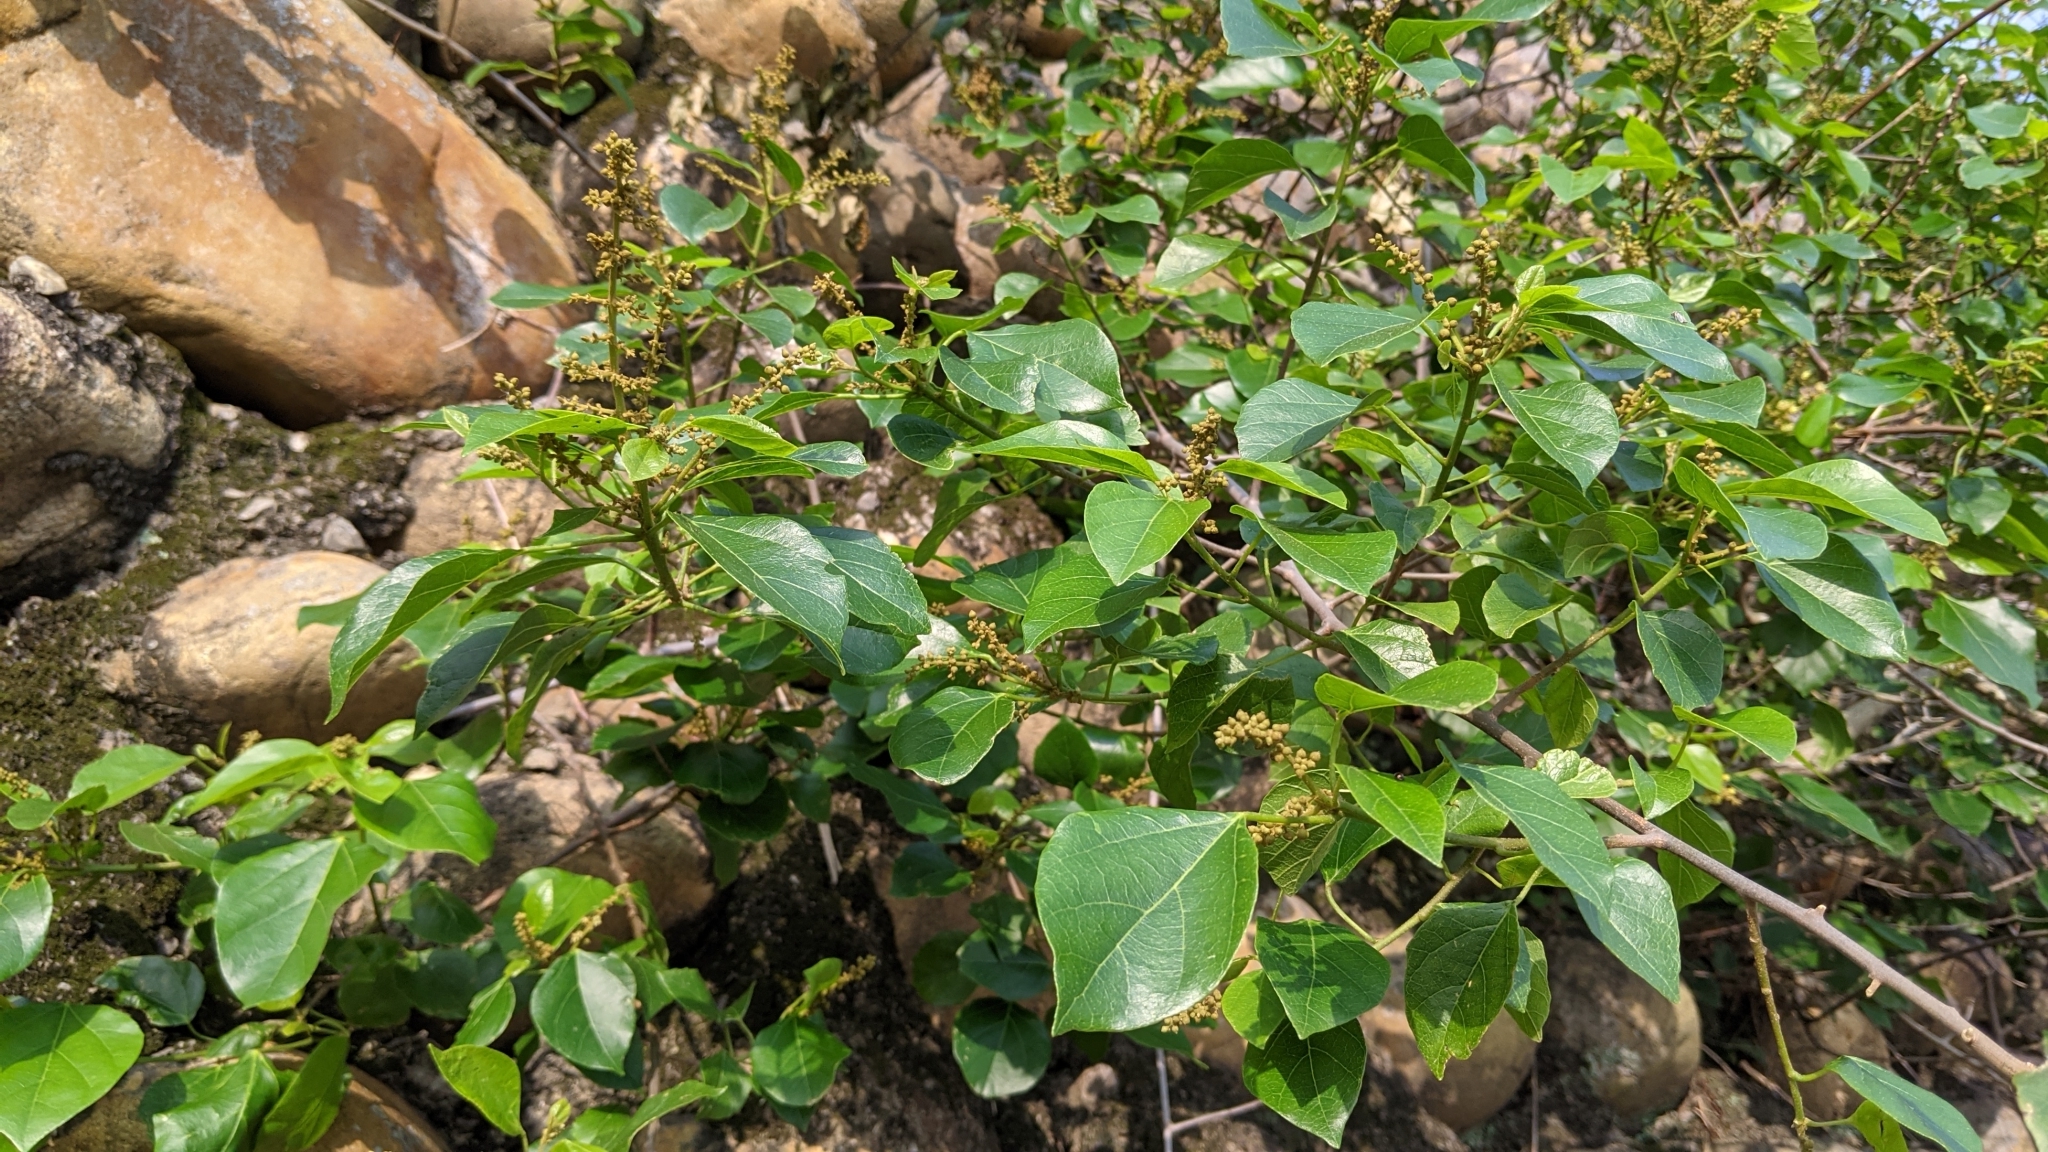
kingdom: Plantae
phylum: Tracheophyta
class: Magnoliopsida
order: Malpighiales
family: Euphorbiaceae
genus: Mallotus
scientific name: Mallotus repandus
